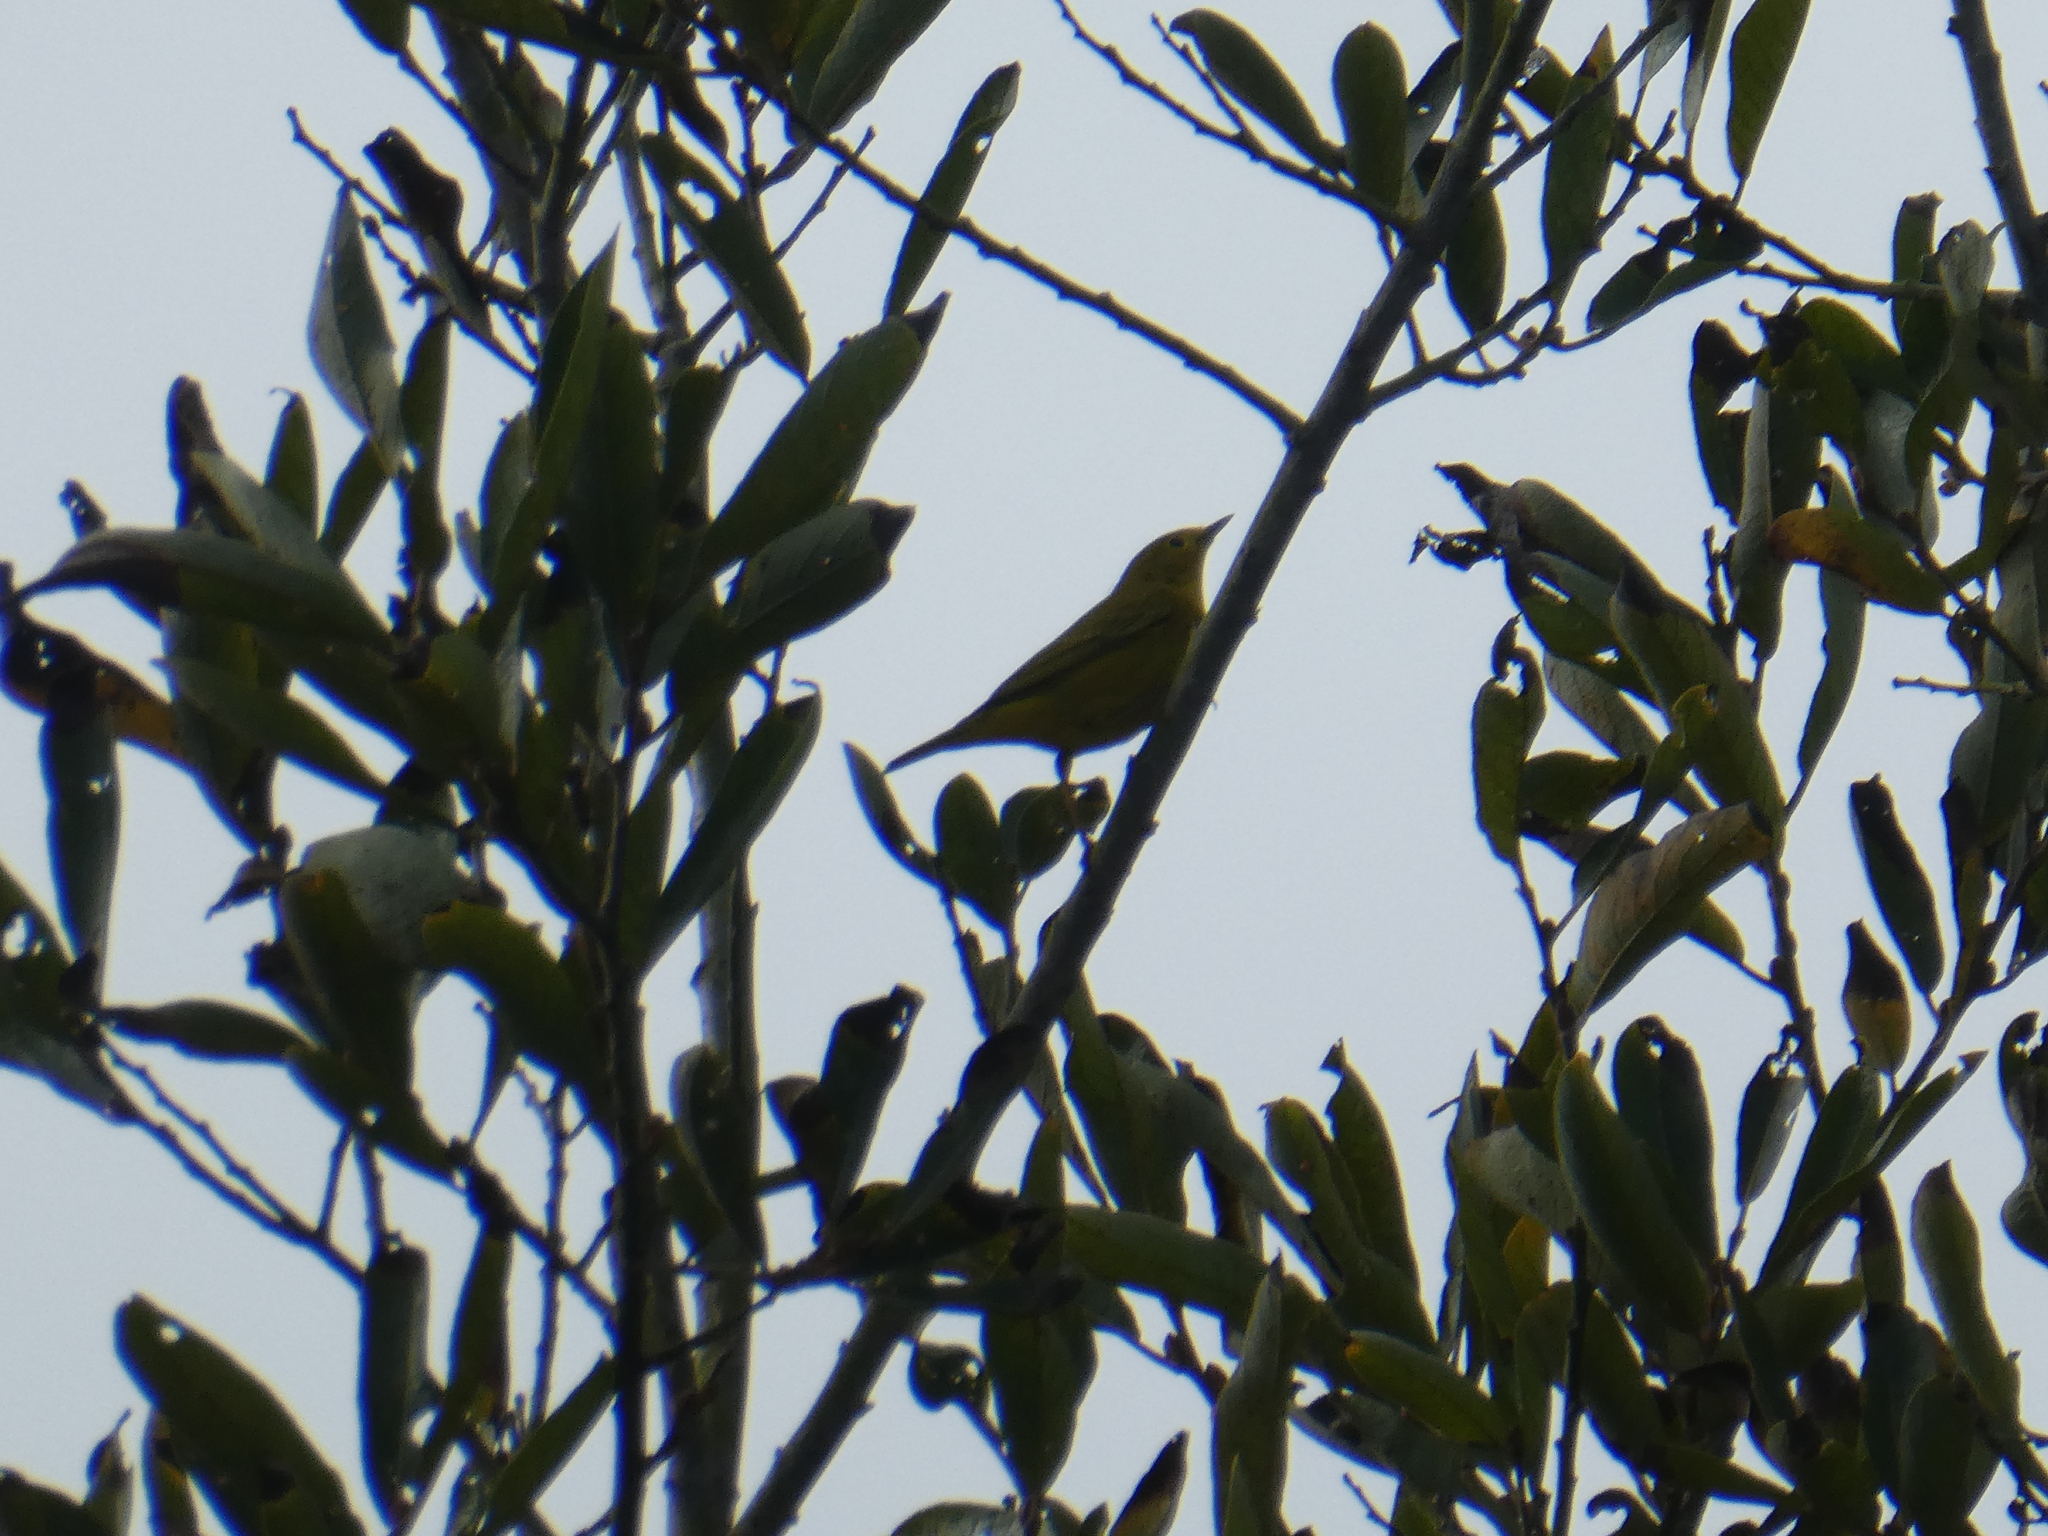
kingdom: Animalia
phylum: Chordata
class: Aves
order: Passeriformes
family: Parulidae
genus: Setophaga
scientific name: Setophaga petechia
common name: Yellow warbler
